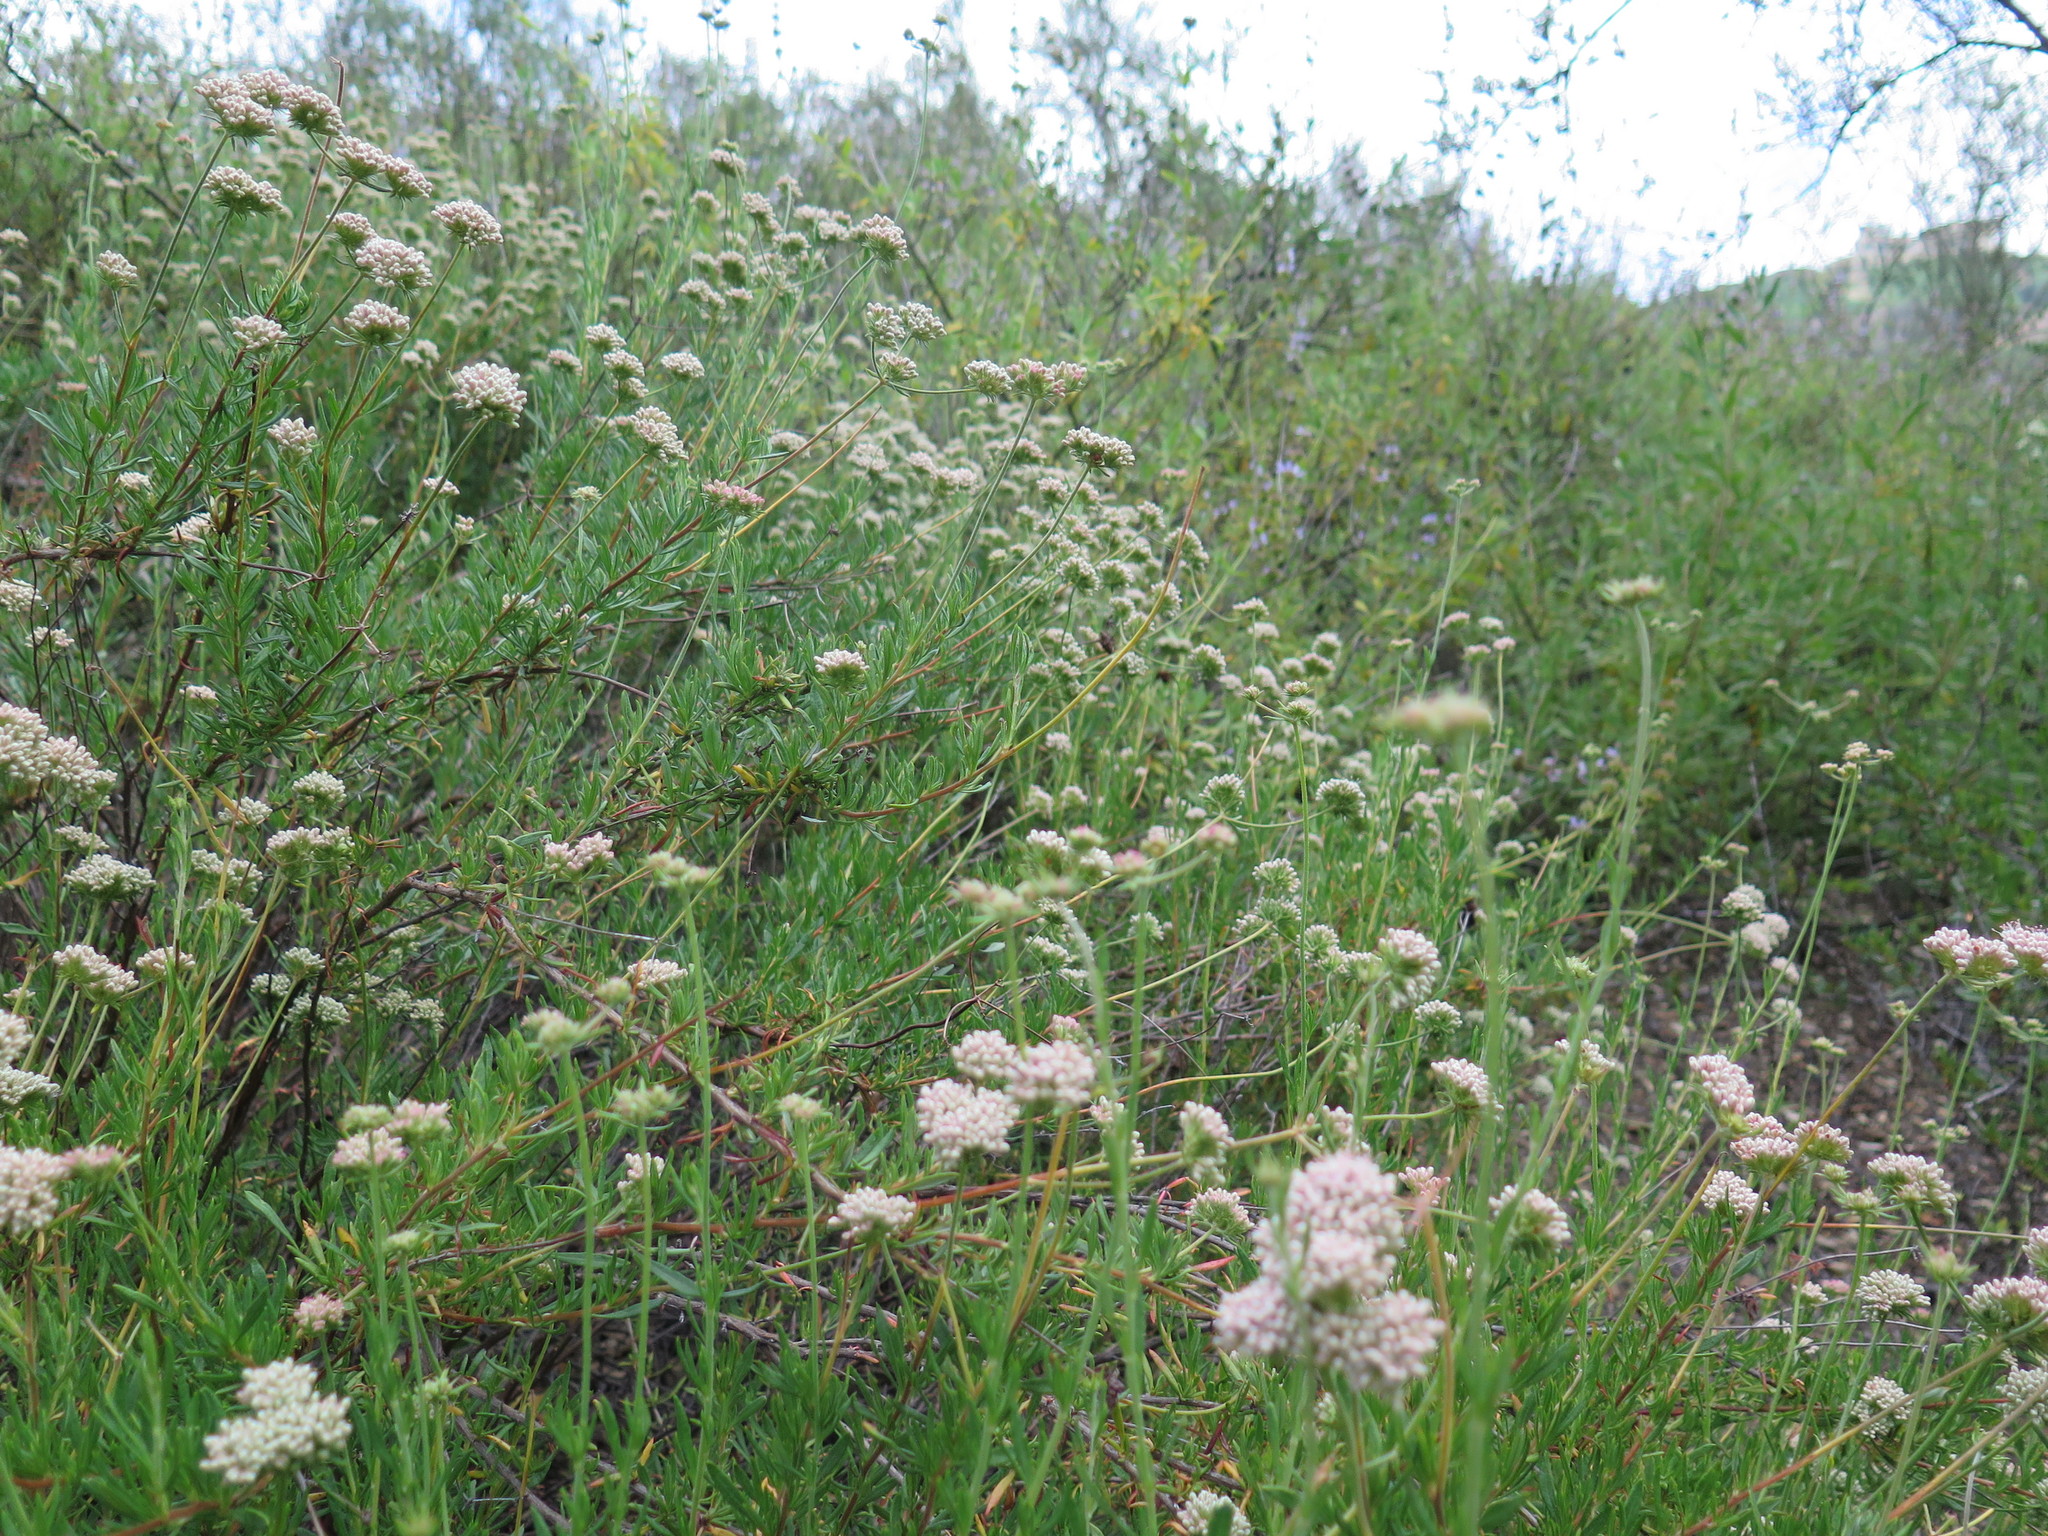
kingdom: Plantae
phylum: Tracheophyta
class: Magnoliopsida
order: Caryophyllales
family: Polygonaceae
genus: Eriogonum
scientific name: Eriogonum fasciculatum
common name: California wild buckwheat
